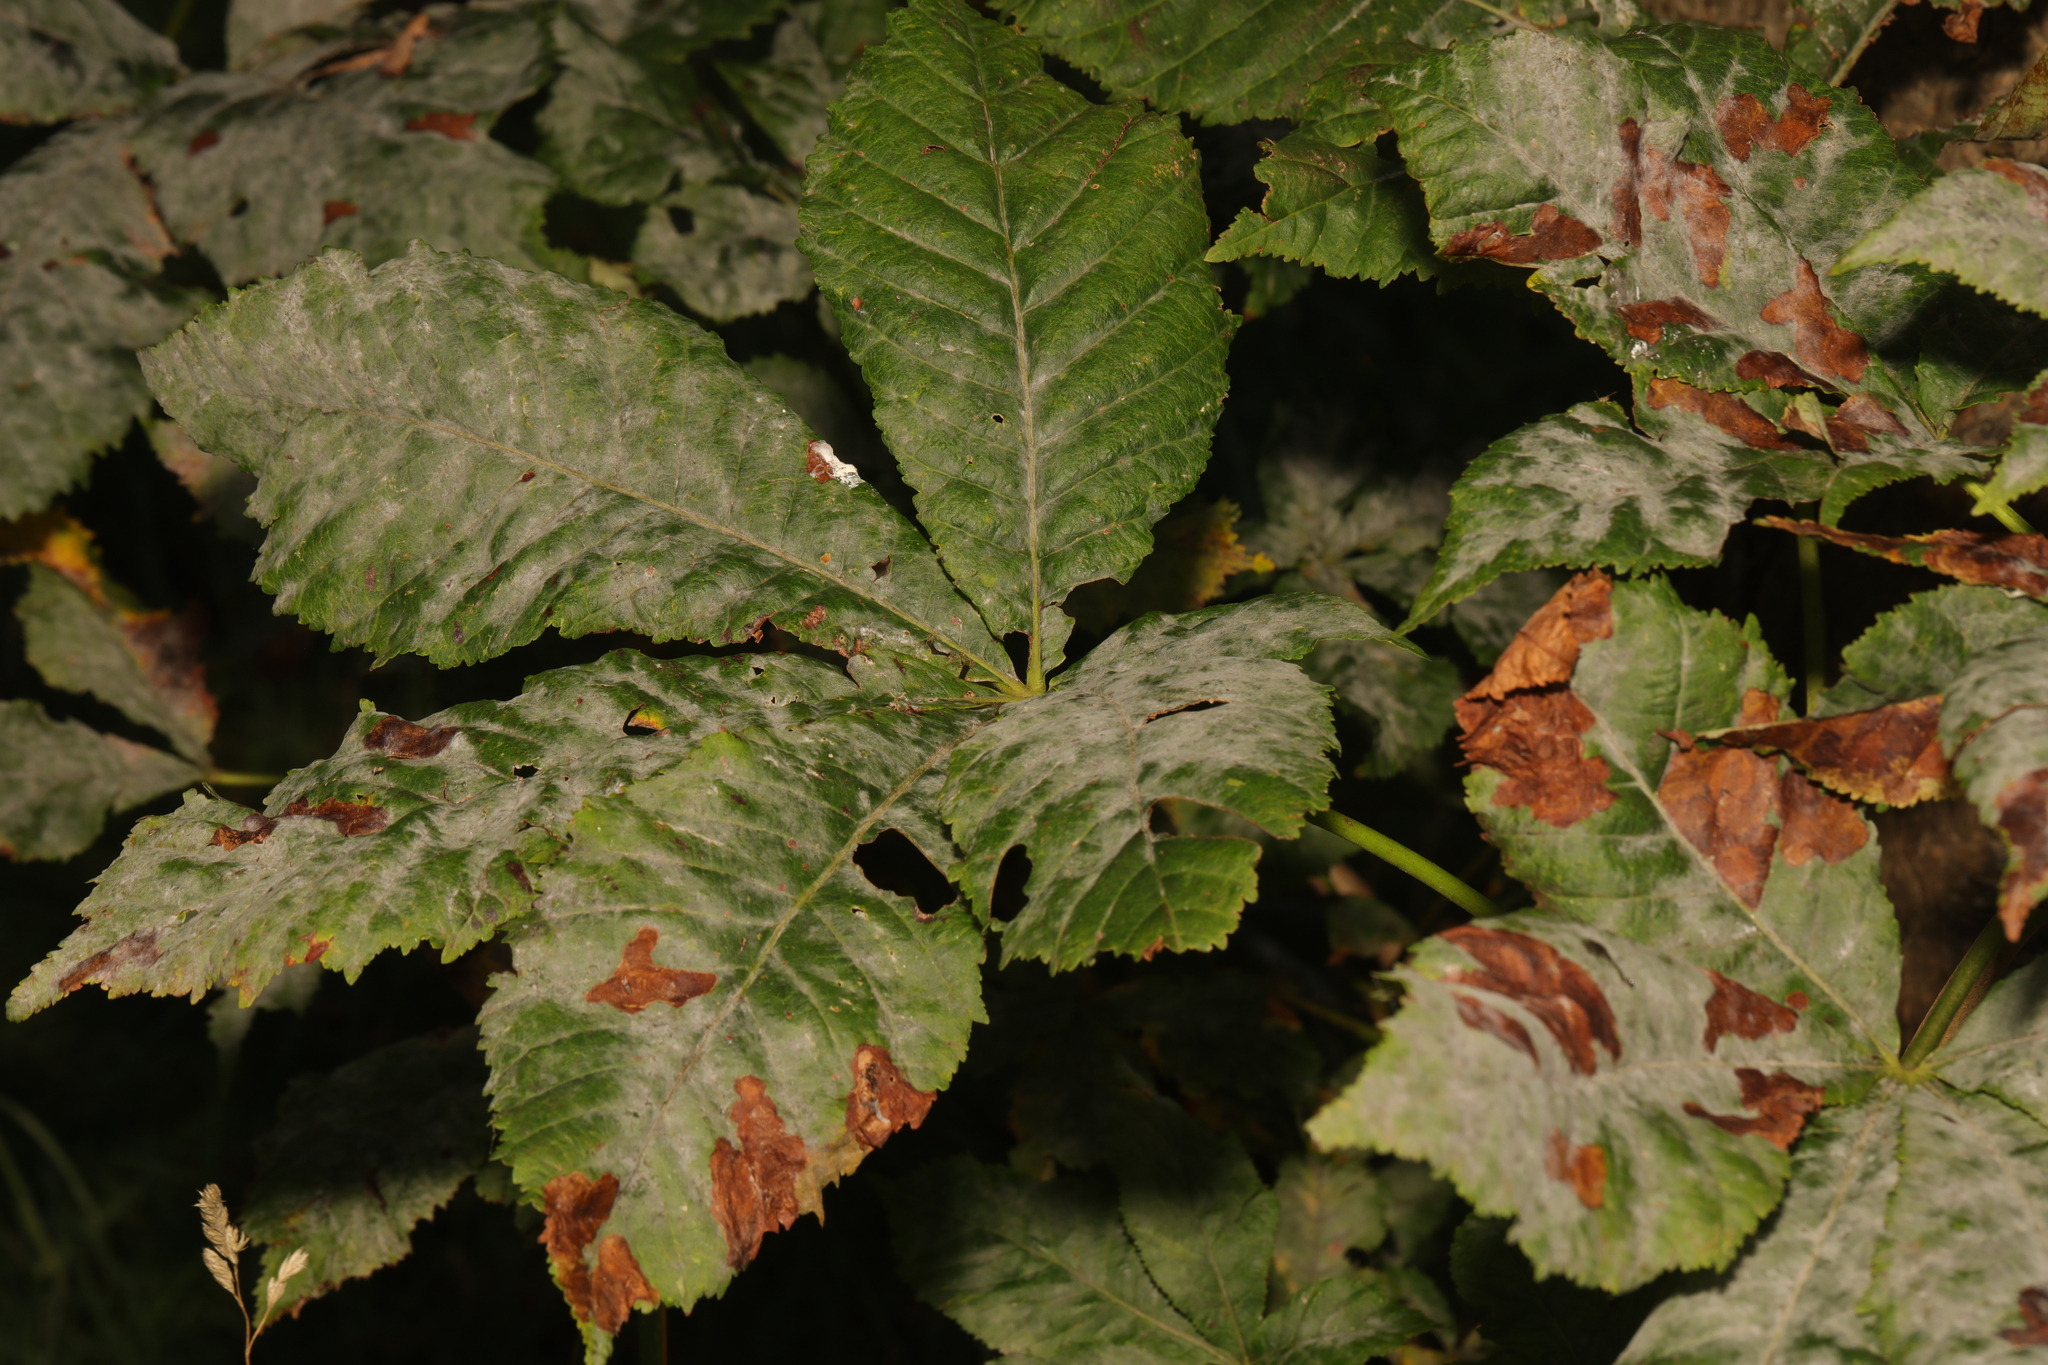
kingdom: Plantae
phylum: Tracheophyta
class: Magnoliopsida
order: Sapindales
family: Sapindaceae
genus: Aesculus
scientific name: Aesculus hippocastanum
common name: Horse-chestnut
